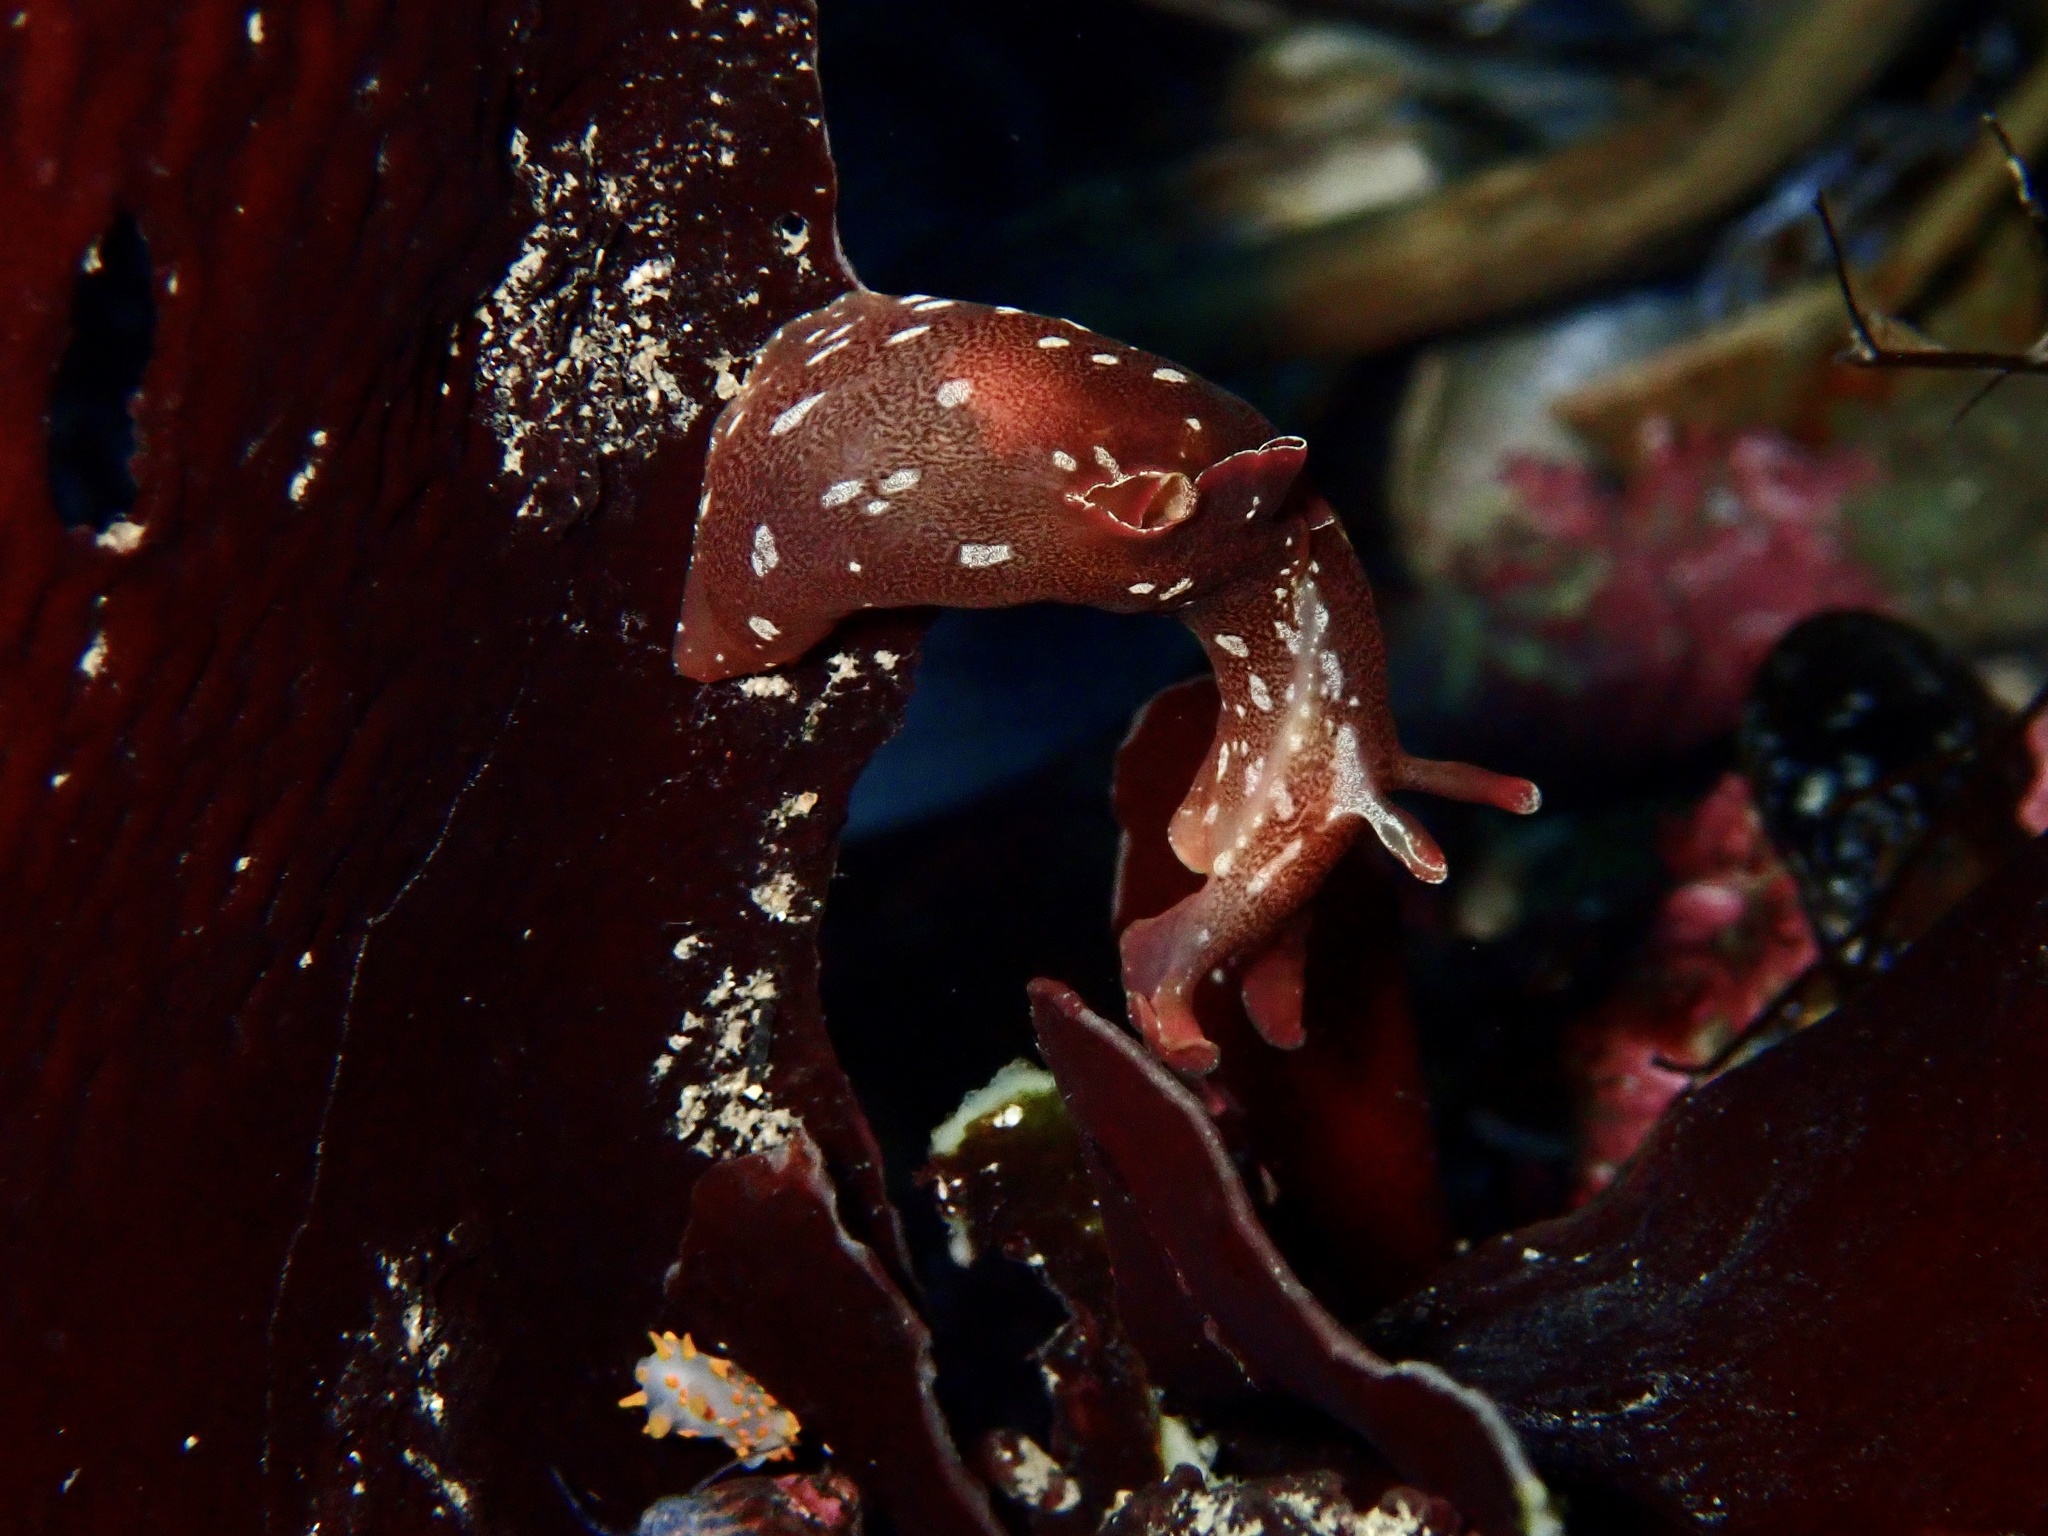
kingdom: Animalia
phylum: Mollusca
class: Gastropoda
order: Aplysiida
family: Aplysiidae
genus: Aplysia
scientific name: Aplysia punctata
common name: Common sea hare
